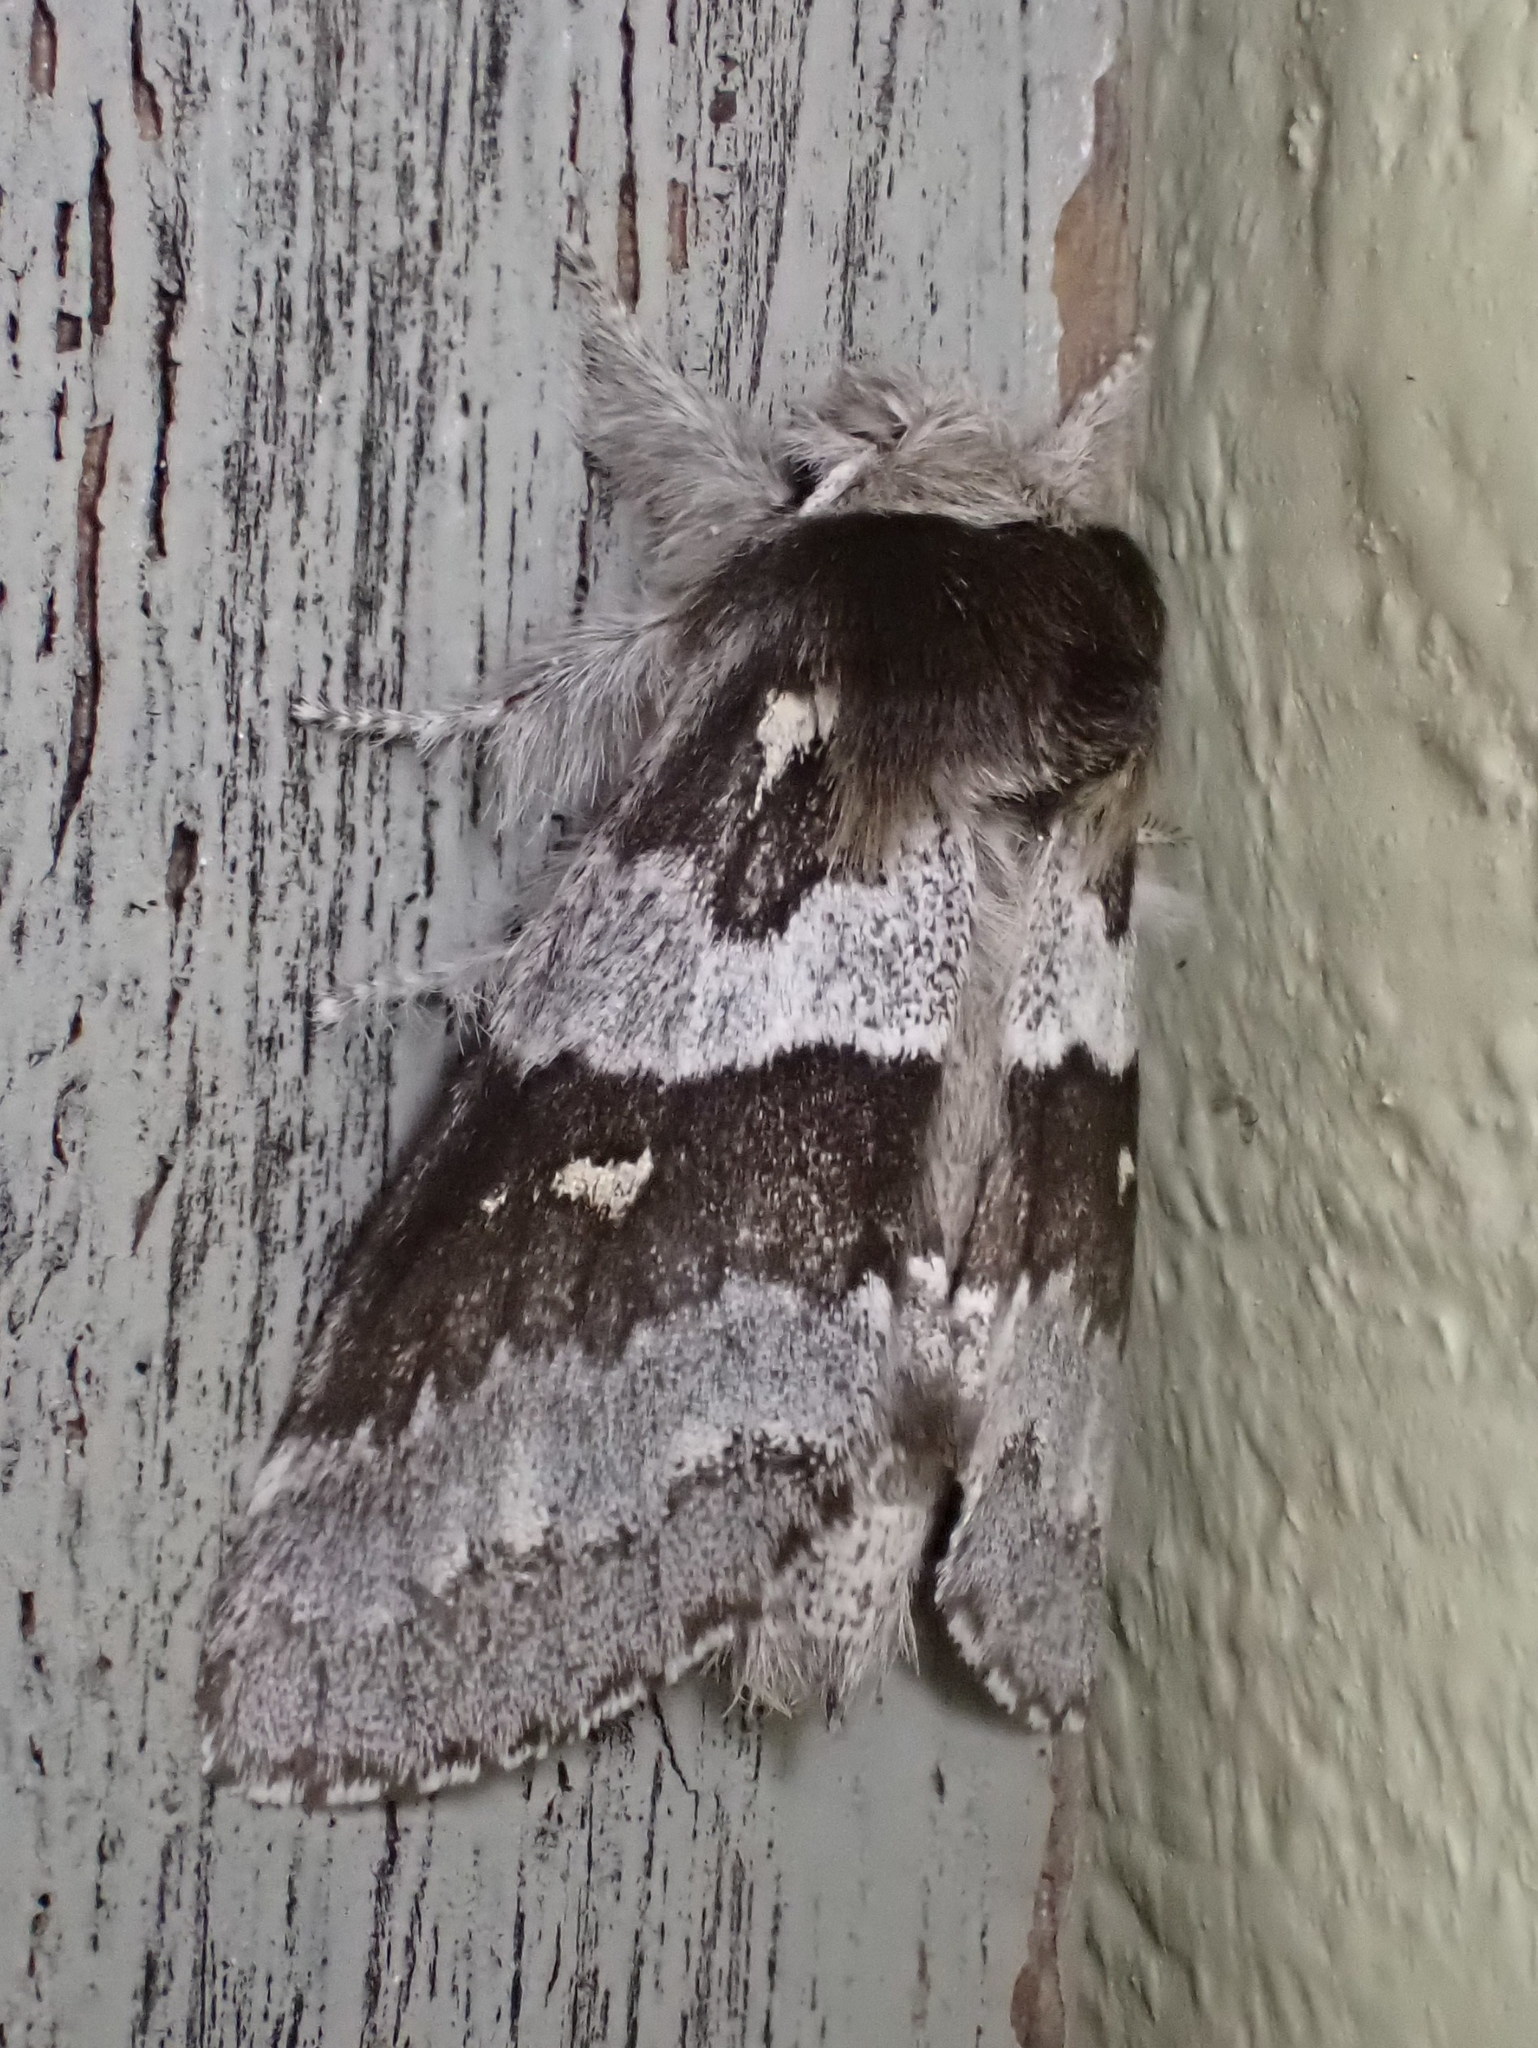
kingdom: Animalia
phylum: Arthropoda
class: Insecta
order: Lepidoptera
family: Notodontidae
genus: Gluphisia
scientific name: Gluphisia avimacula
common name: Four-spotted gluphisia moth
